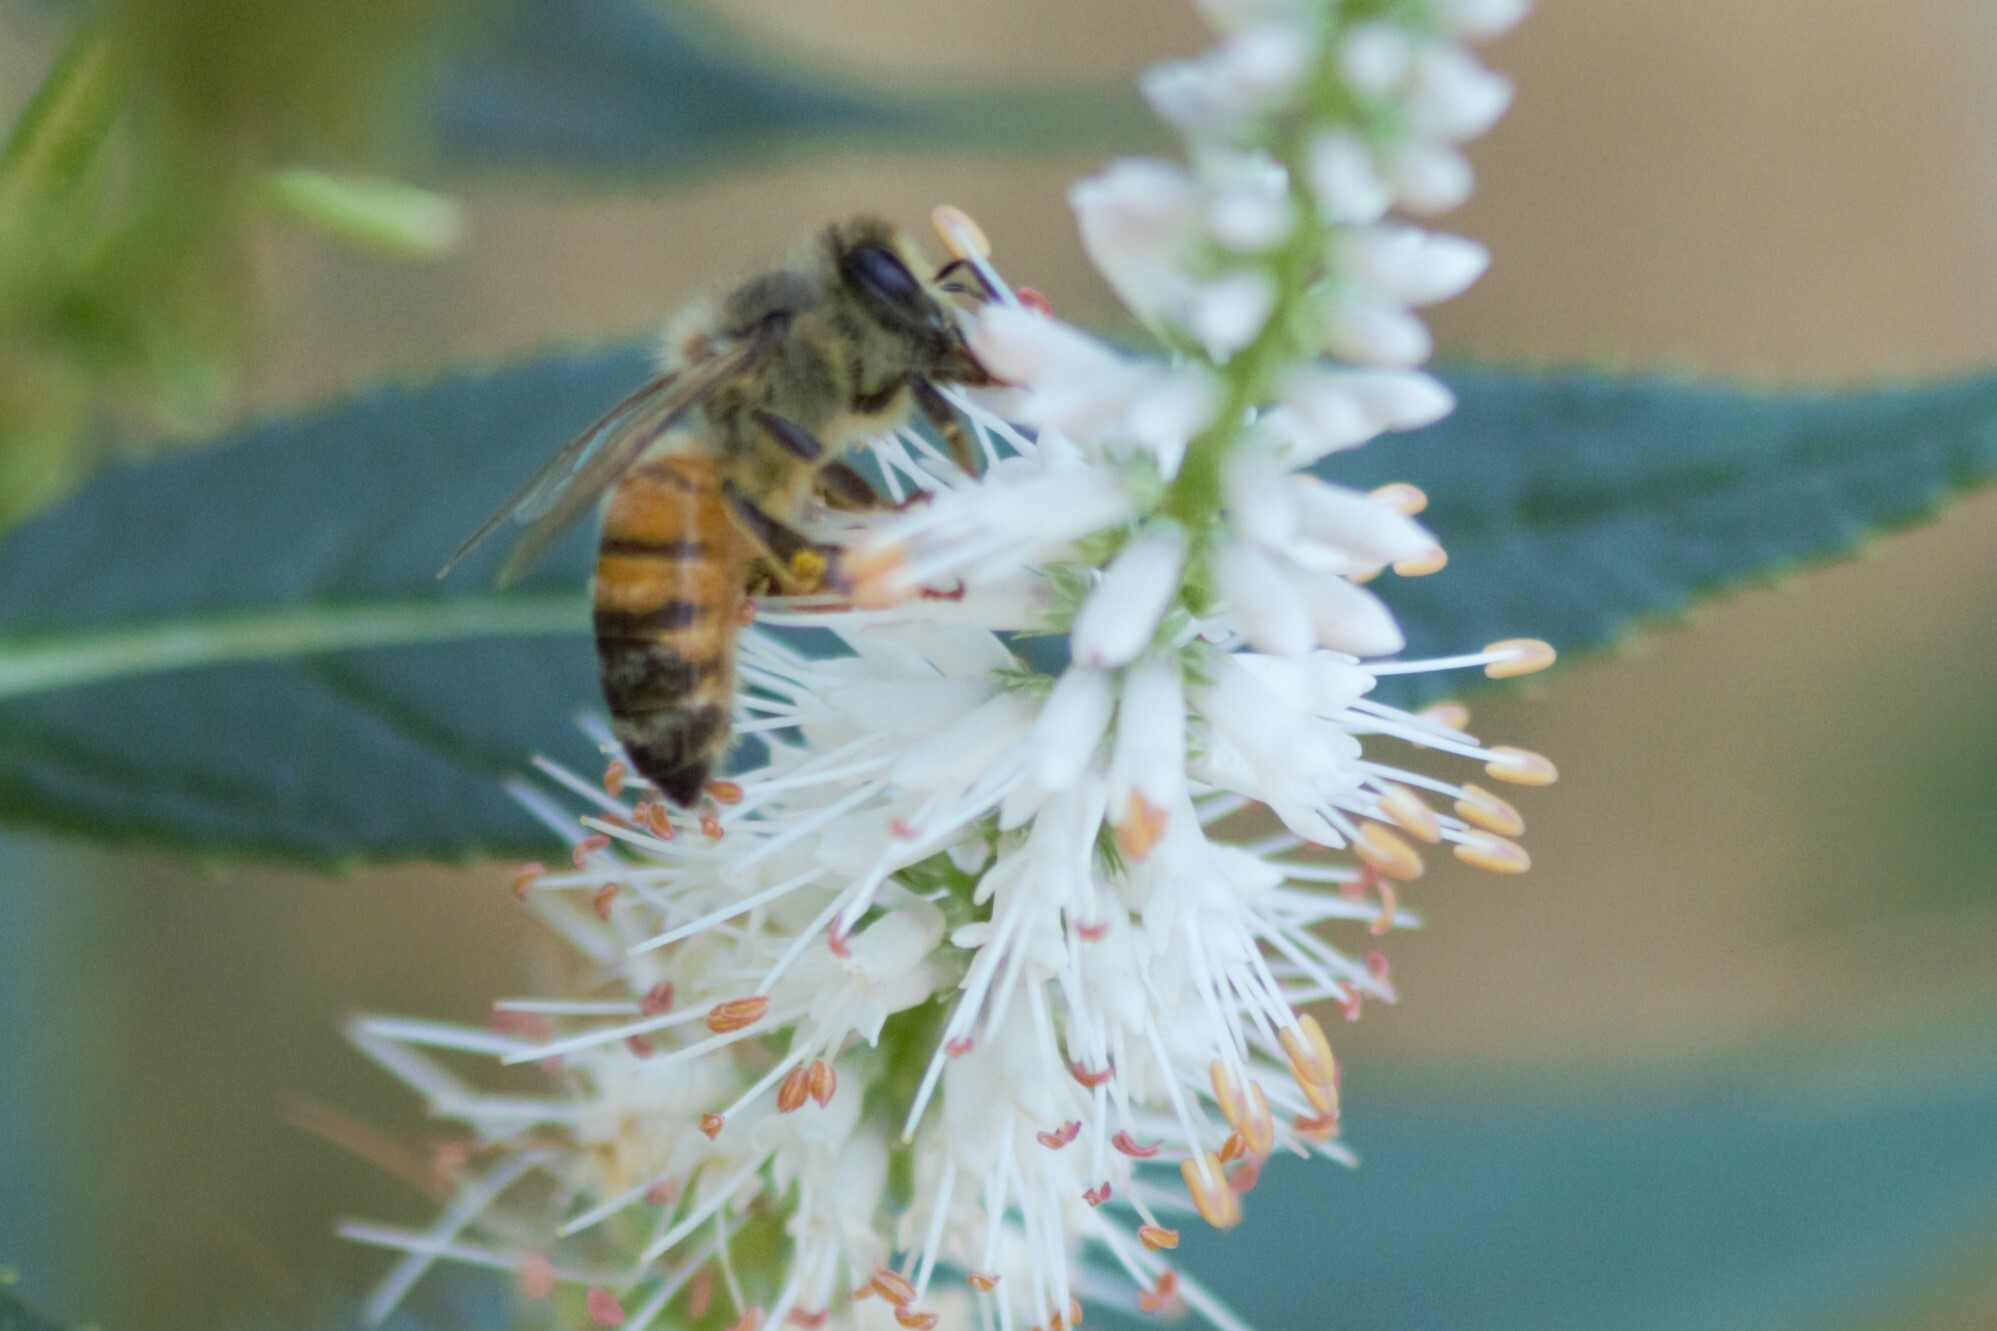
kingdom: Animalia
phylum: Arthropoda
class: Insecta
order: Hymenoptera
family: Apidae
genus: Apis
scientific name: Apis mellifera
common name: Honey bee
